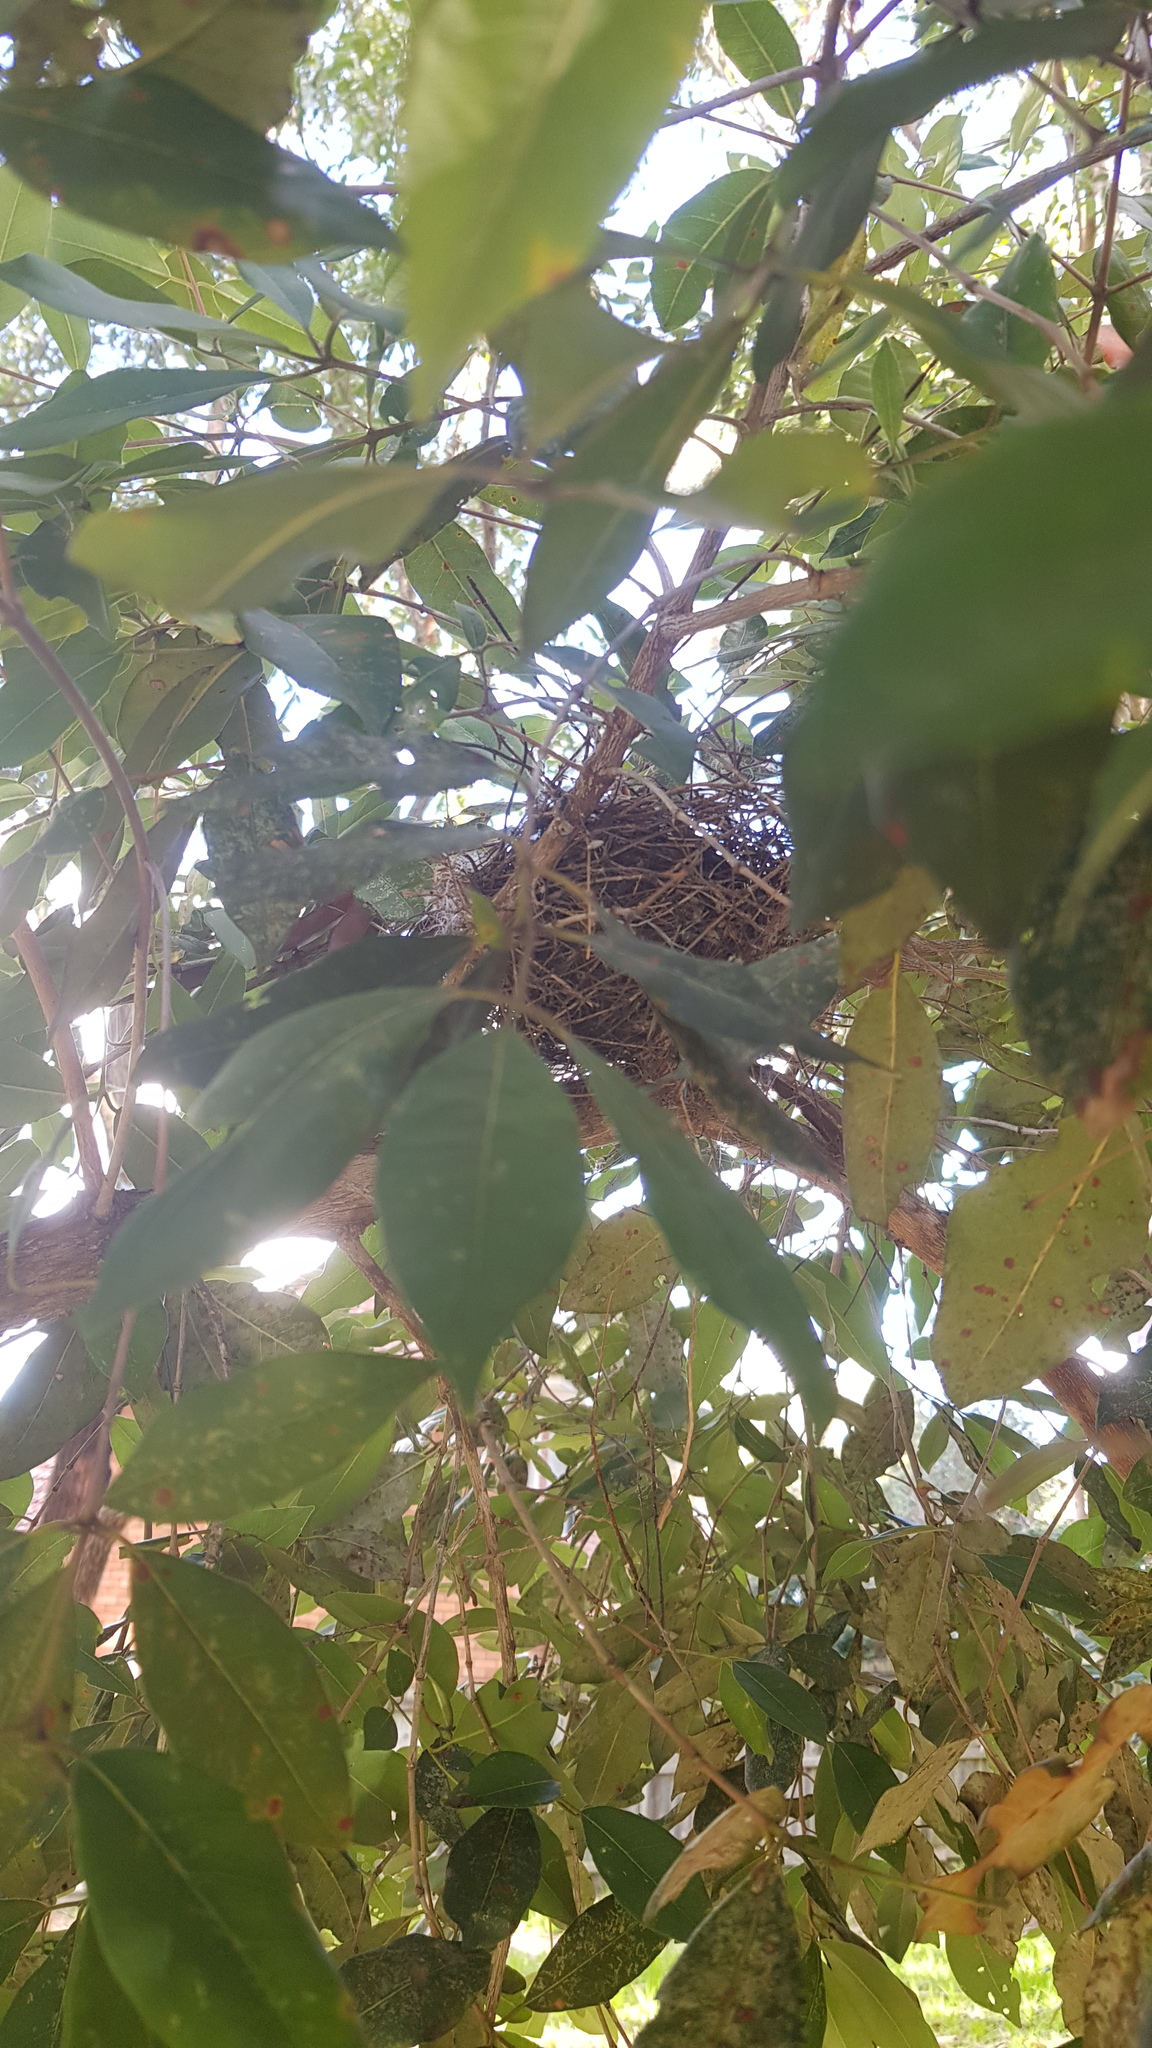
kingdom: Animalia
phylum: Chordata
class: Aves
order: Passeriformes
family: Meliphagidae
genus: Manorina
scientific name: Manorina melanocephala
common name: Noisy miner
